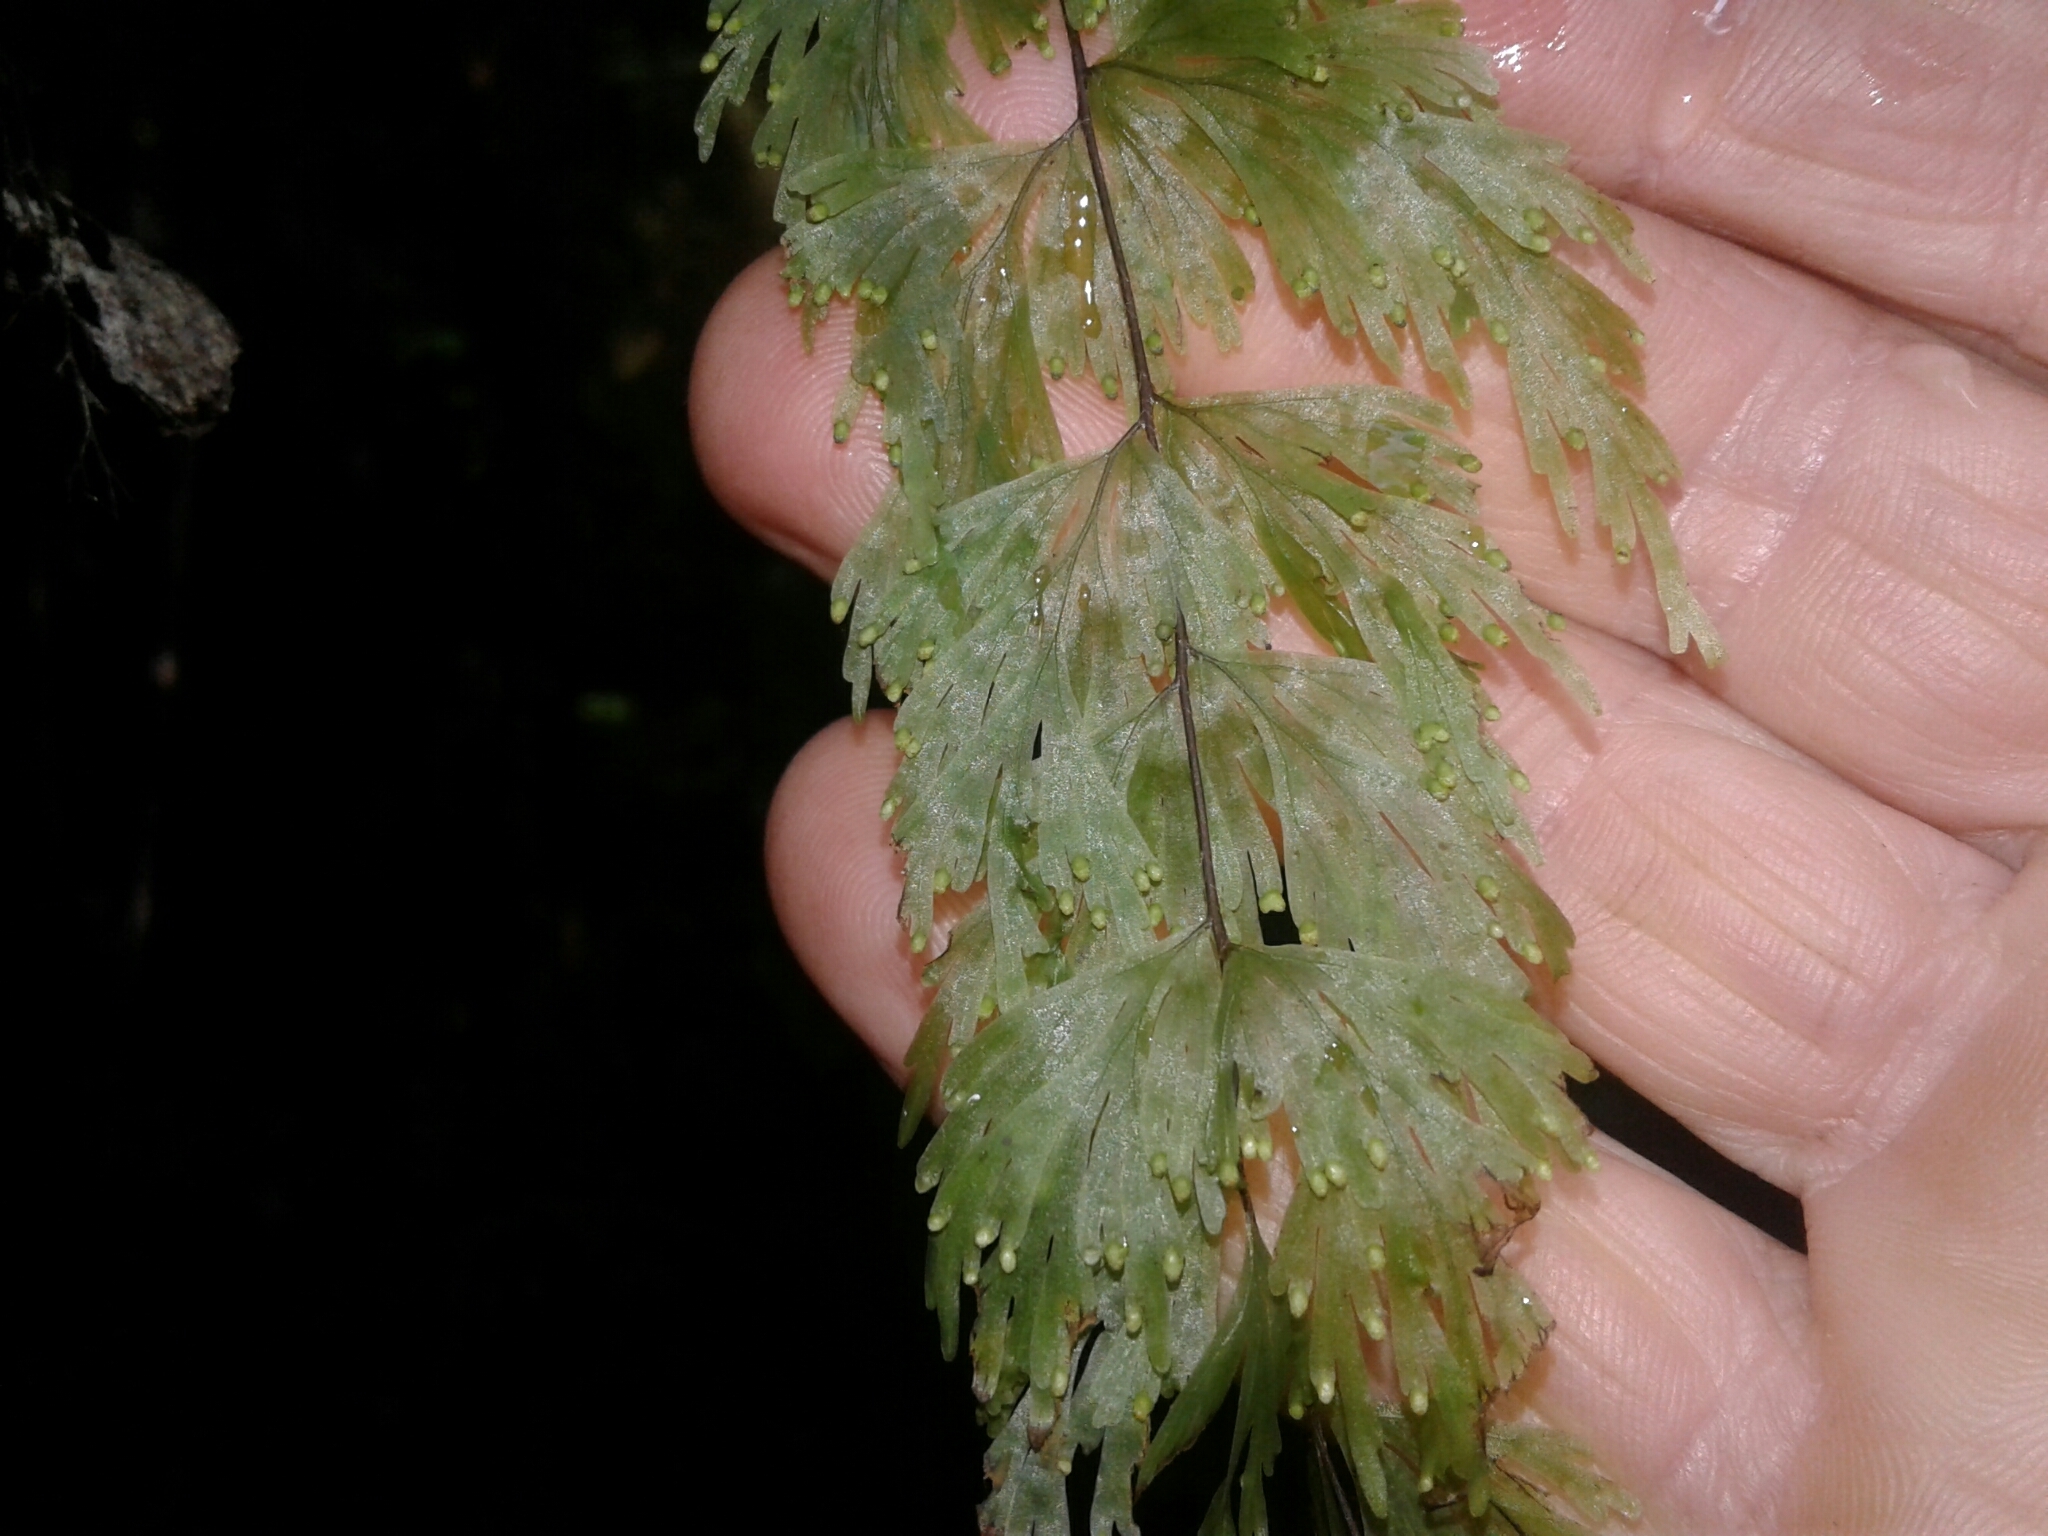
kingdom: Plantae
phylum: Tracheophyta
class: Polypodiopsida
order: Hymenophyllales
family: Hymenophyllaceae
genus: Hymenophyllum
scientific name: Hymenophyllum flabellatum
